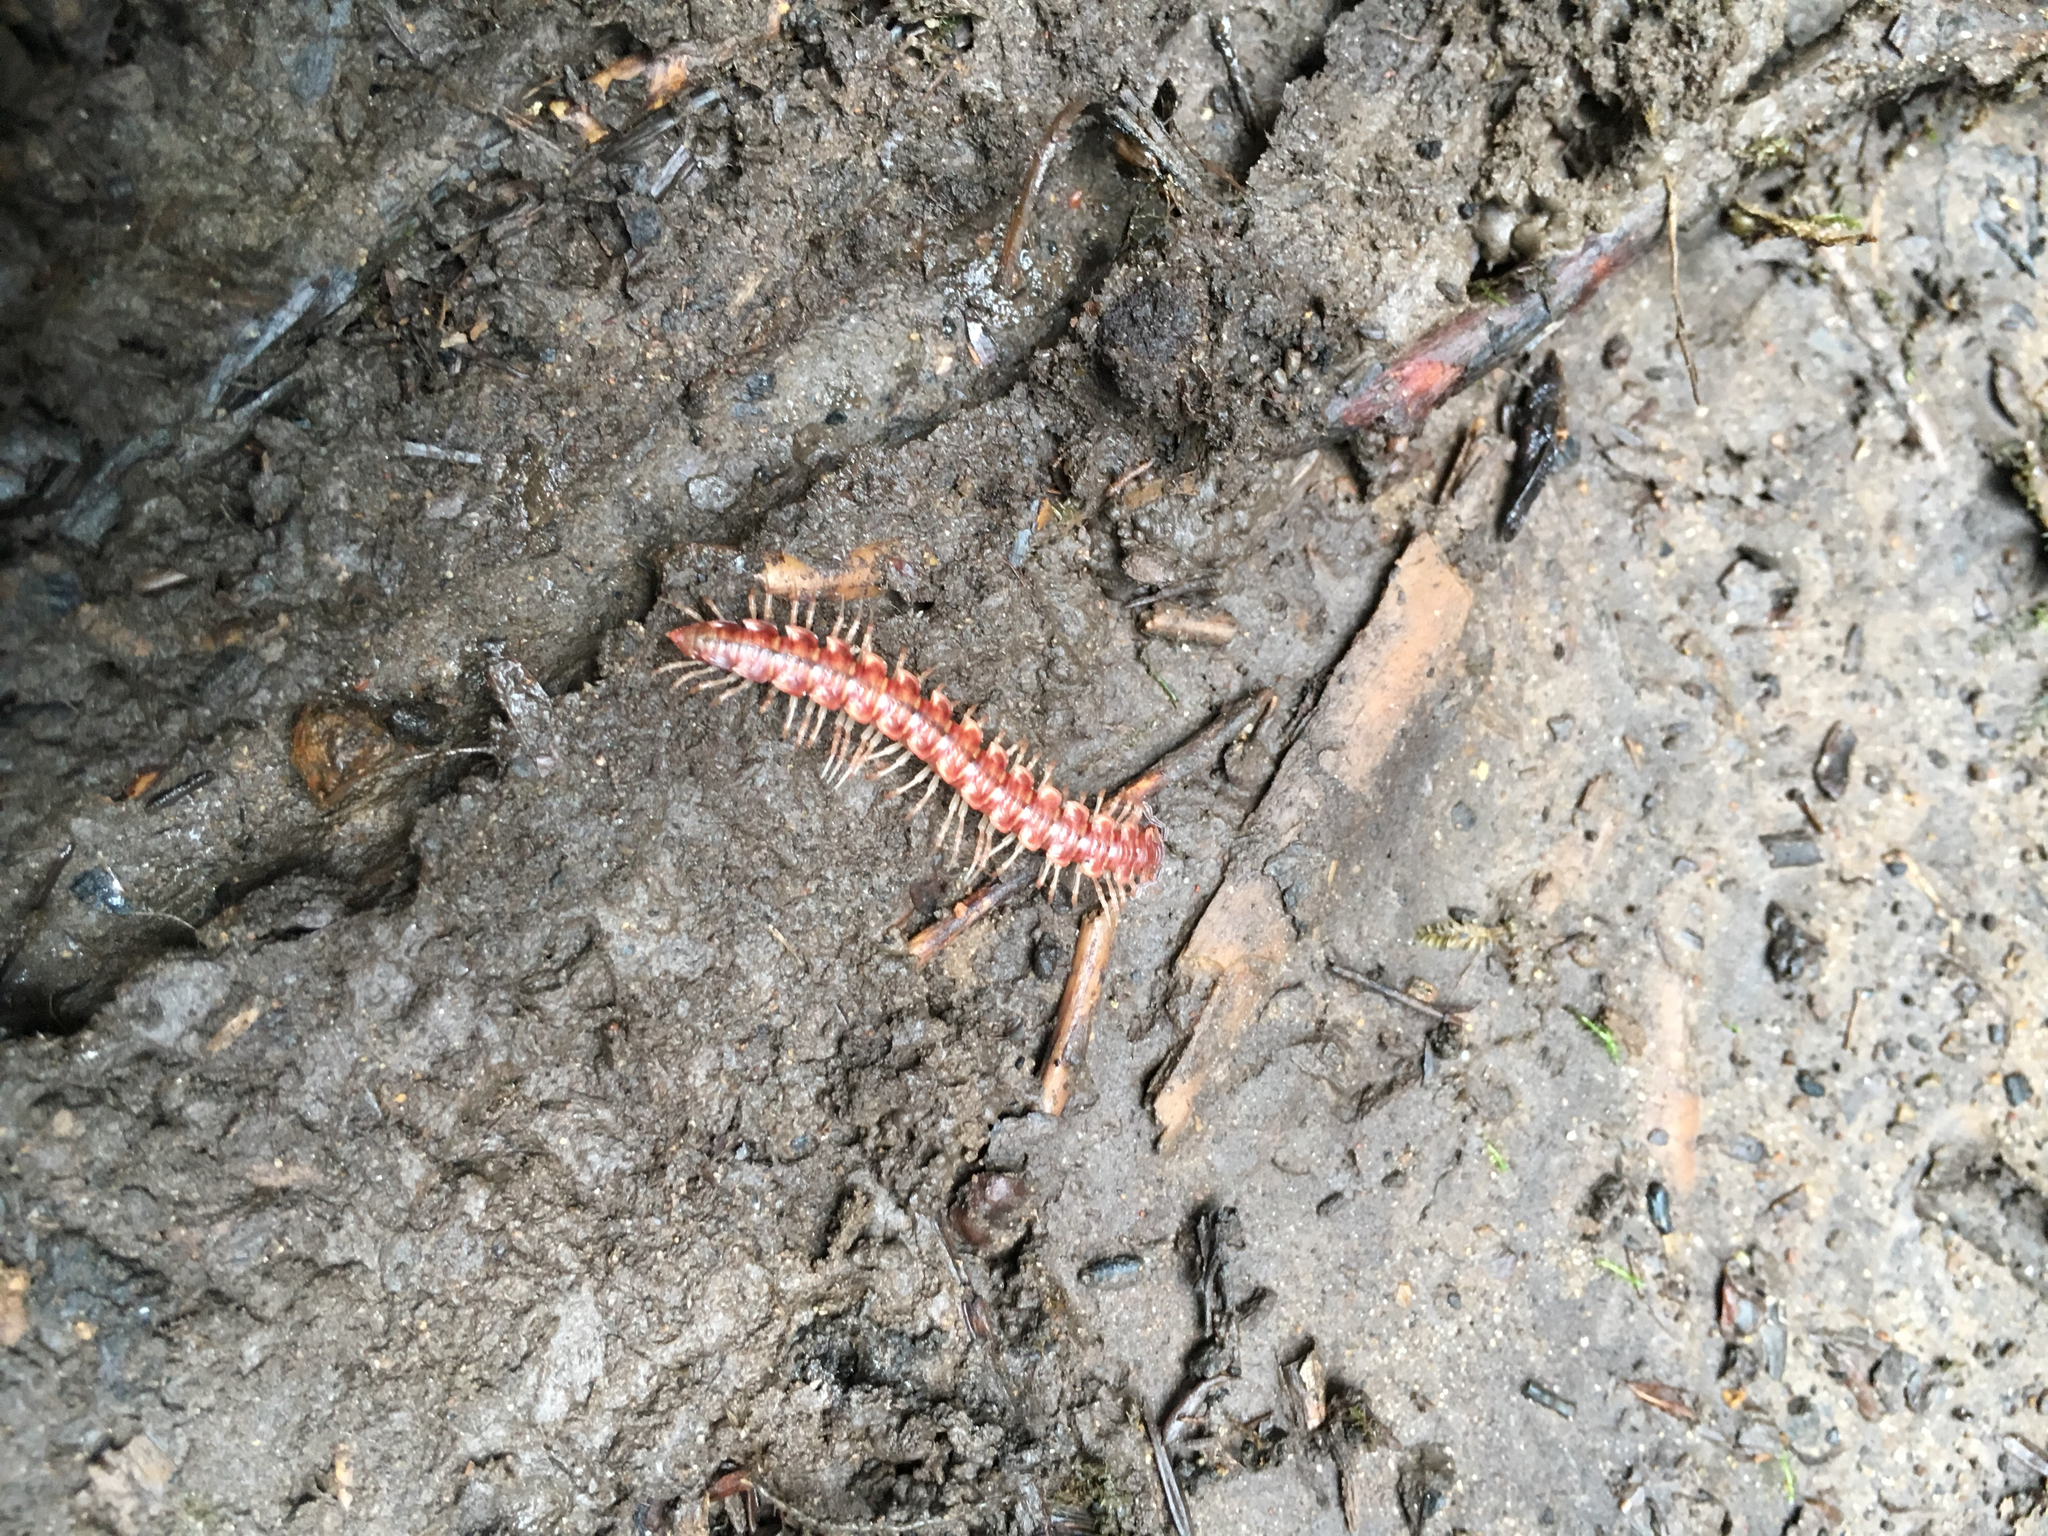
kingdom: Animalia
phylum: Arthropoda
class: Diplopoda
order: Polydesmida
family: Nearctodesmidae
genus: Nearctodesmus
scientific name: Nearctodesmus salix
